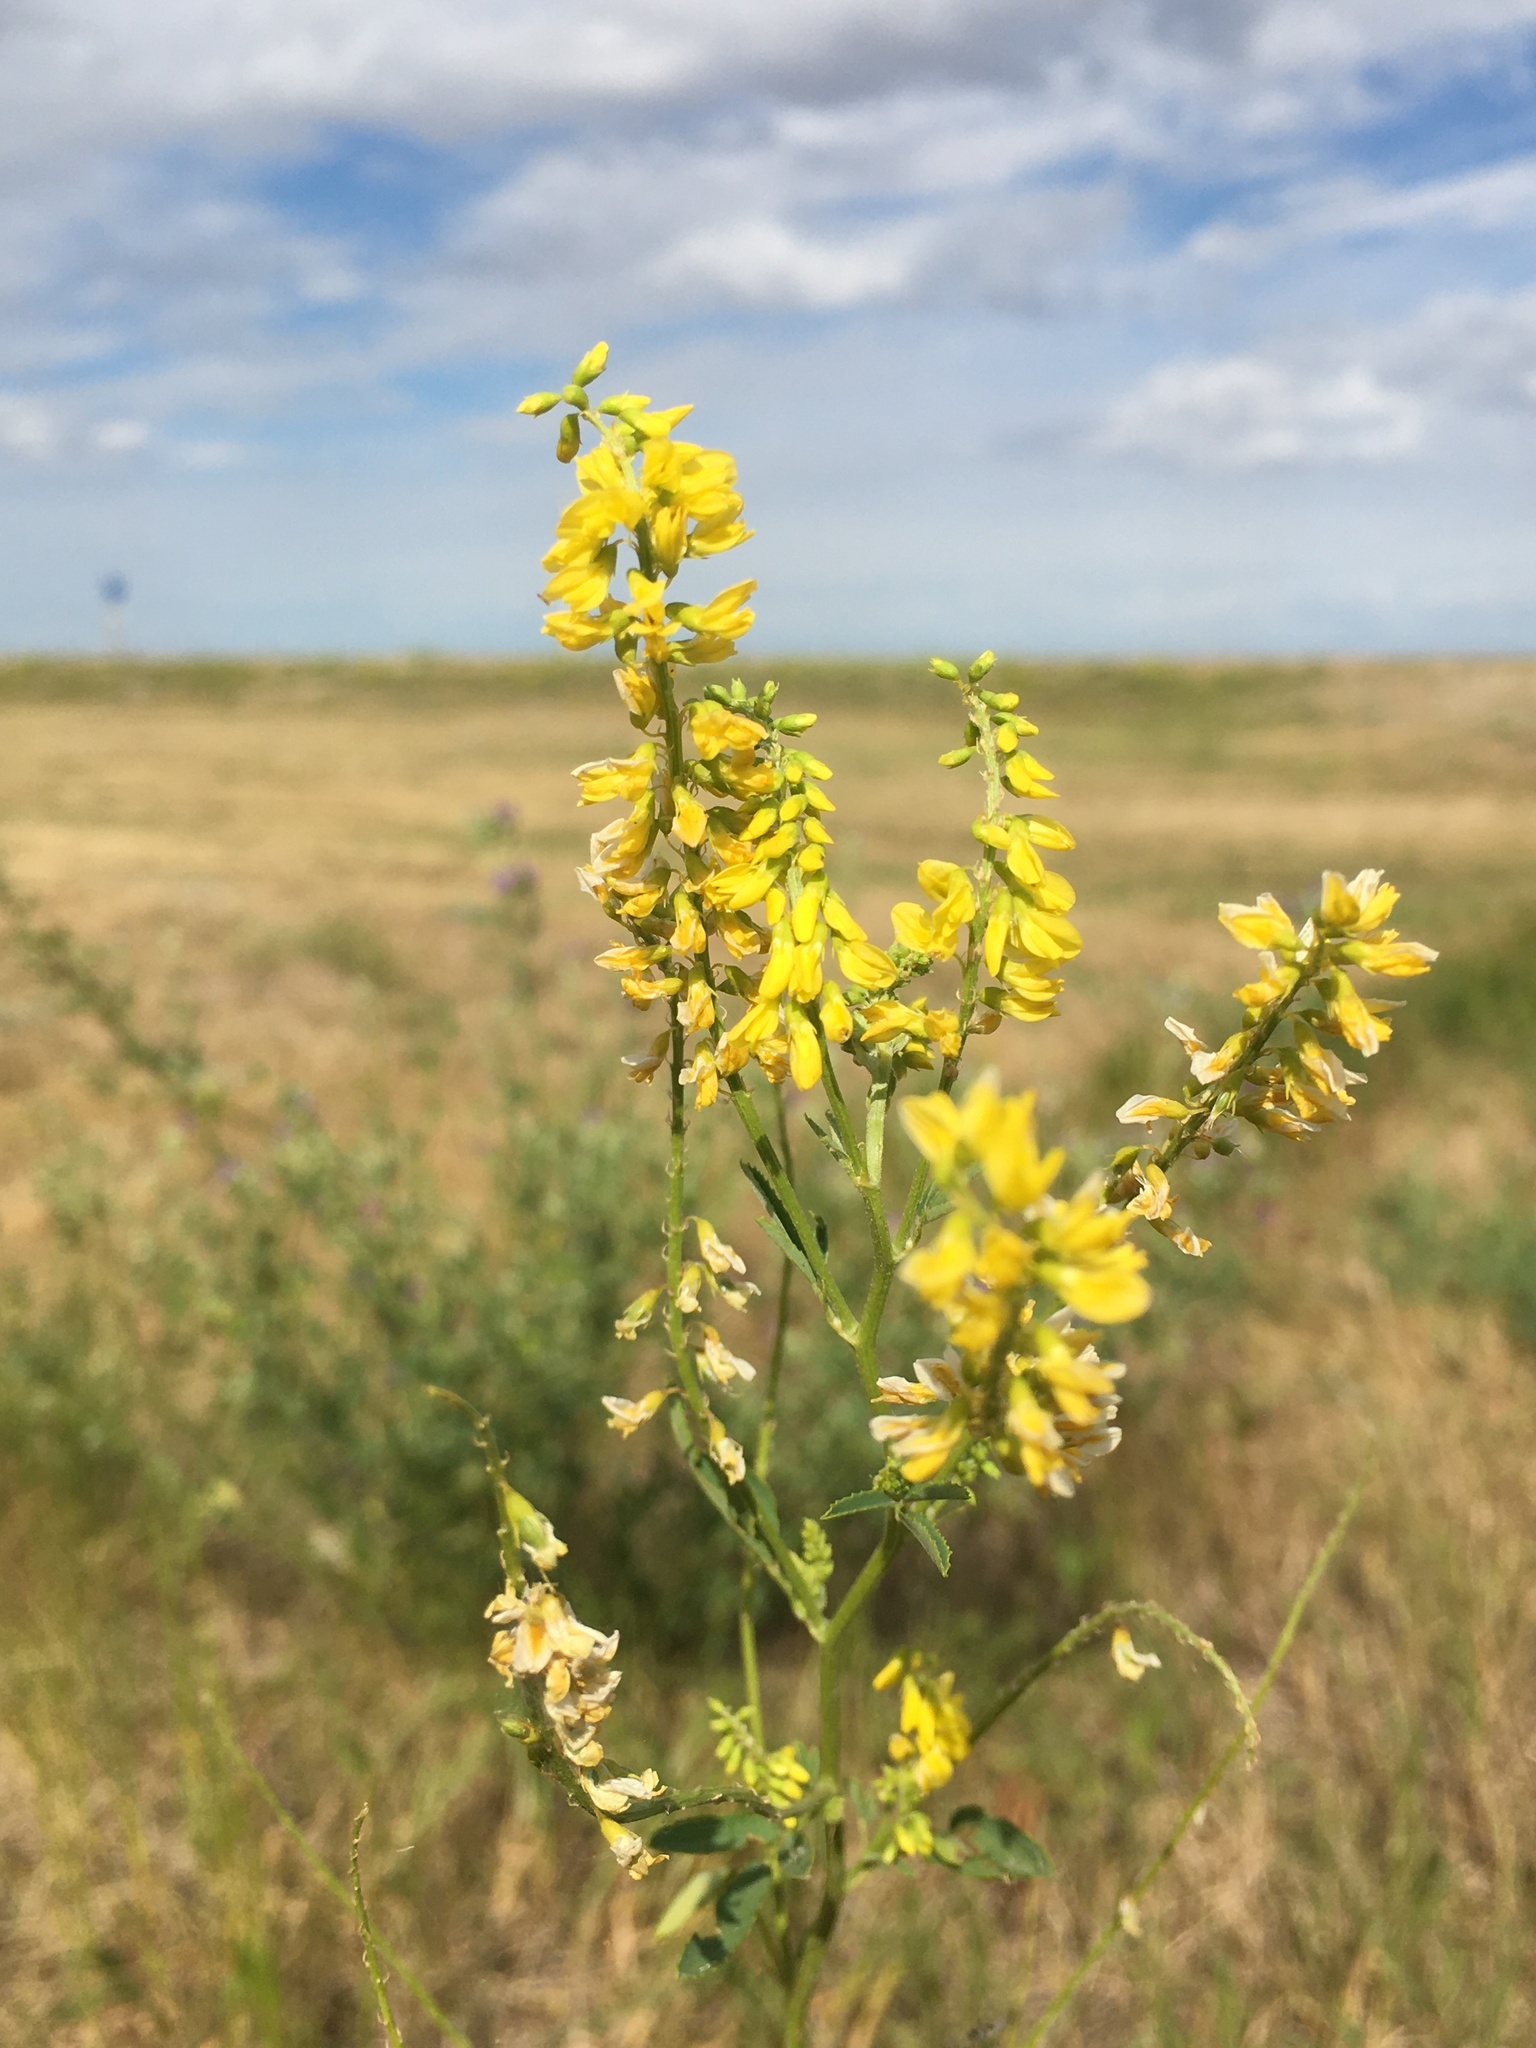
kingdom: Plantae
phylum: Tracheophyta
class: Magnoliopsida
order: Fabales
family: Fabaceae
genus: Melilotus
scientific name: Melilotus officinalis
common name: Sweetclover
